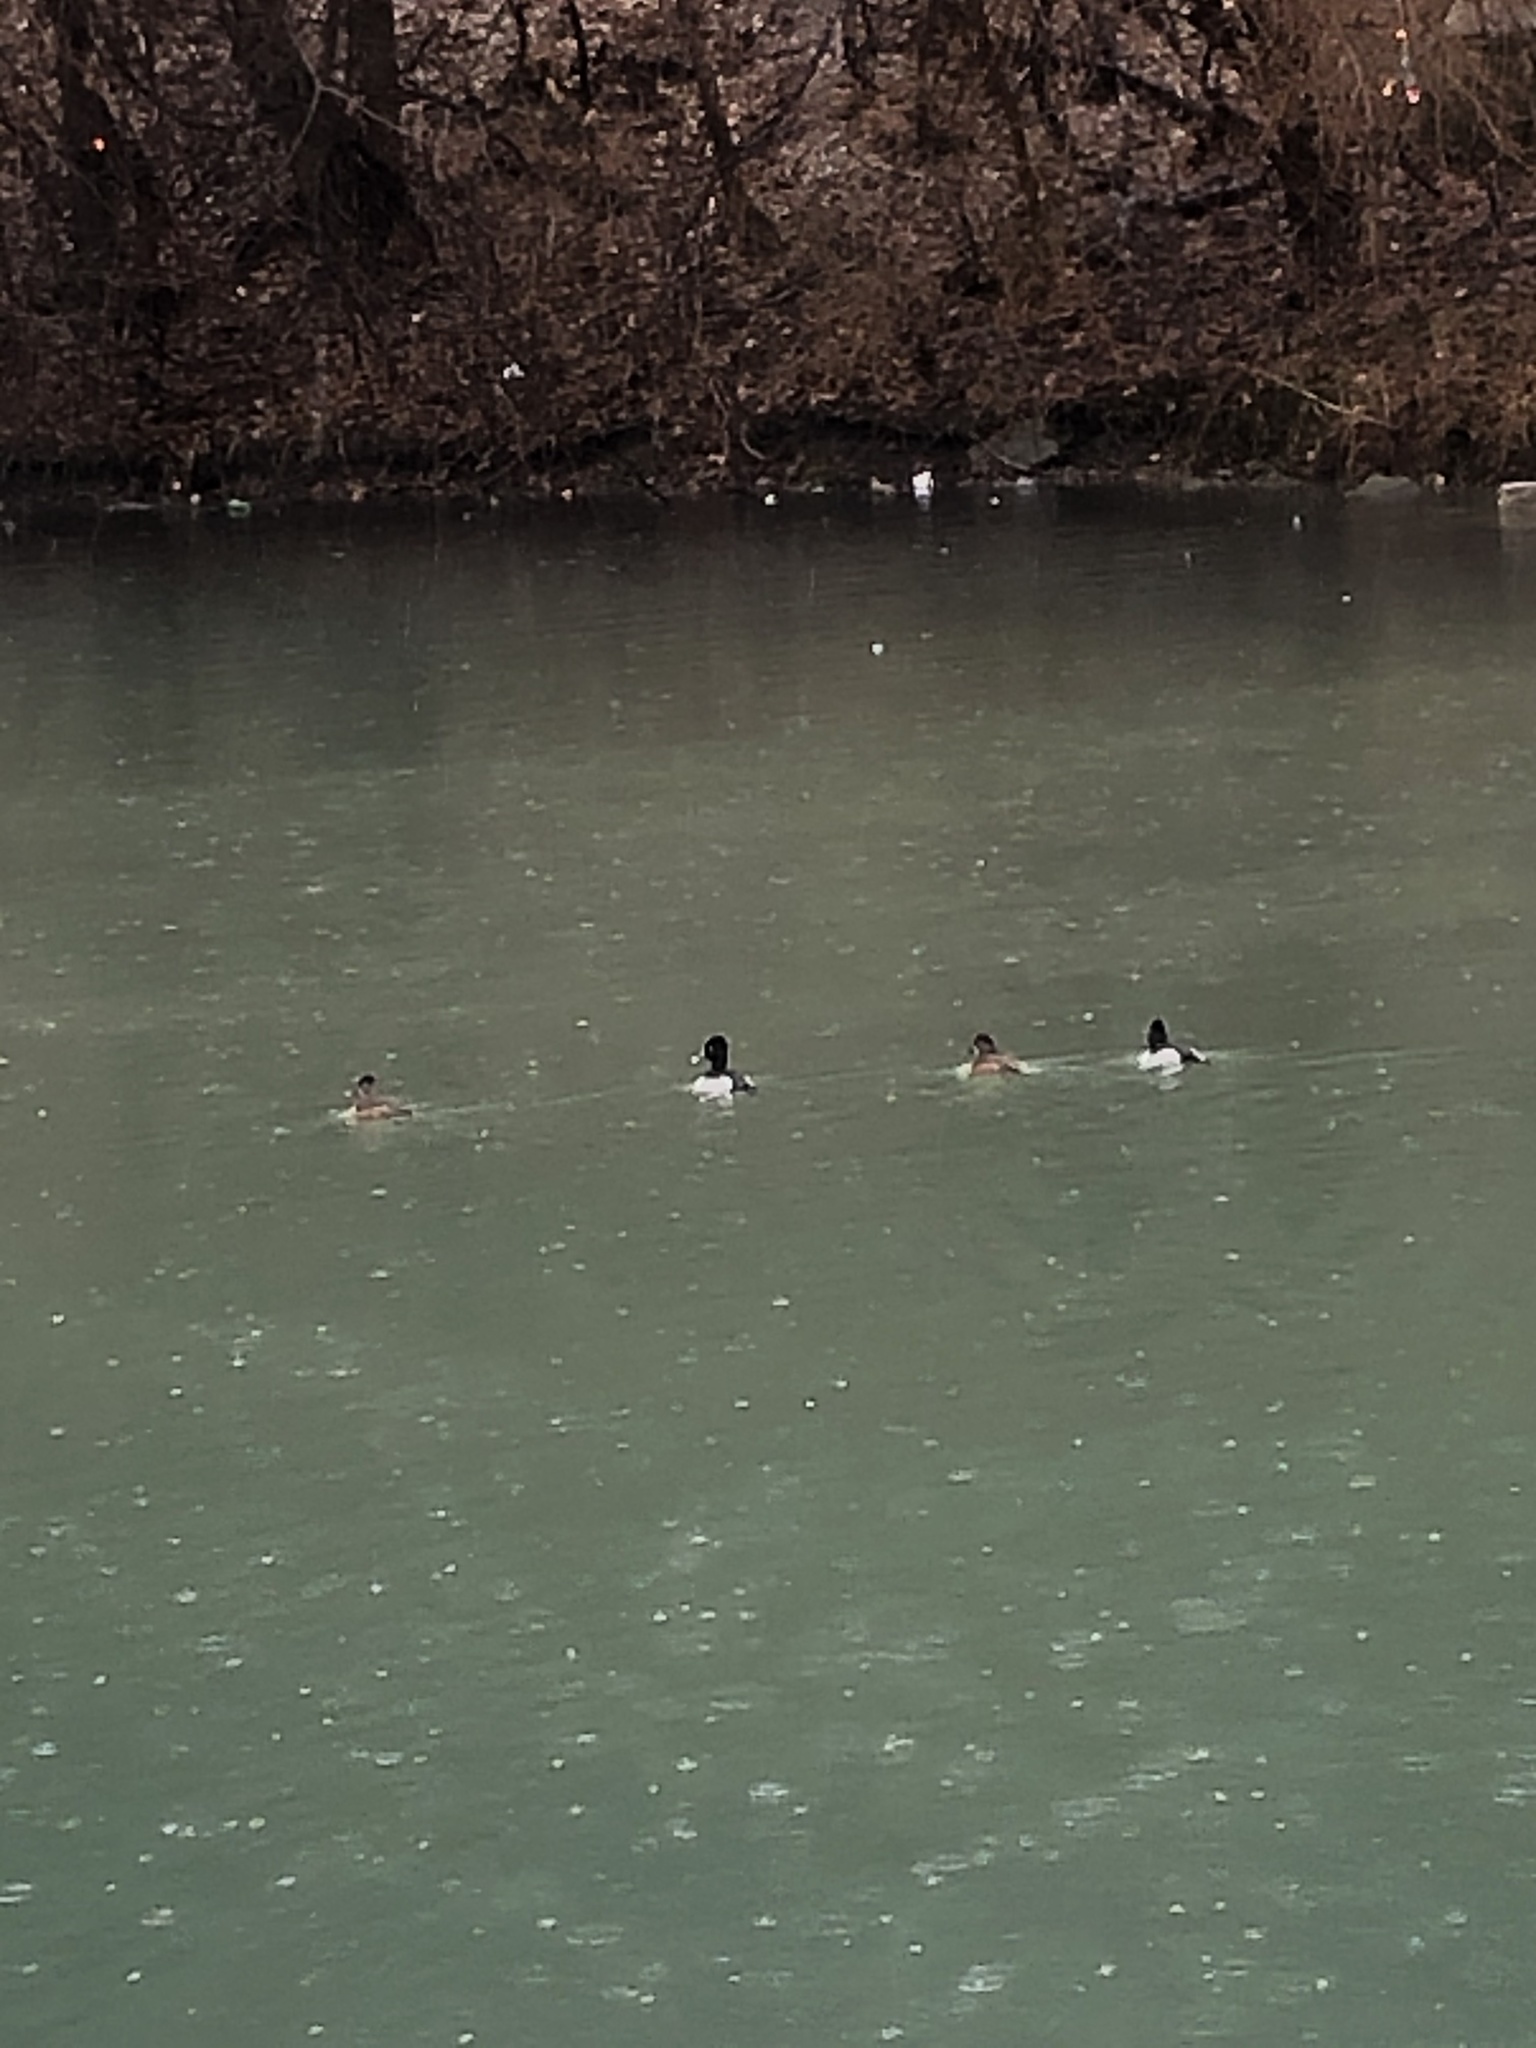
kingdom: Animalia
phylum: Chordata
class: Aves
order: Anseriformes
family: Anatidae
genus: Aythya
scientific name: Aythya collaris
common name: Ring-necked duck
